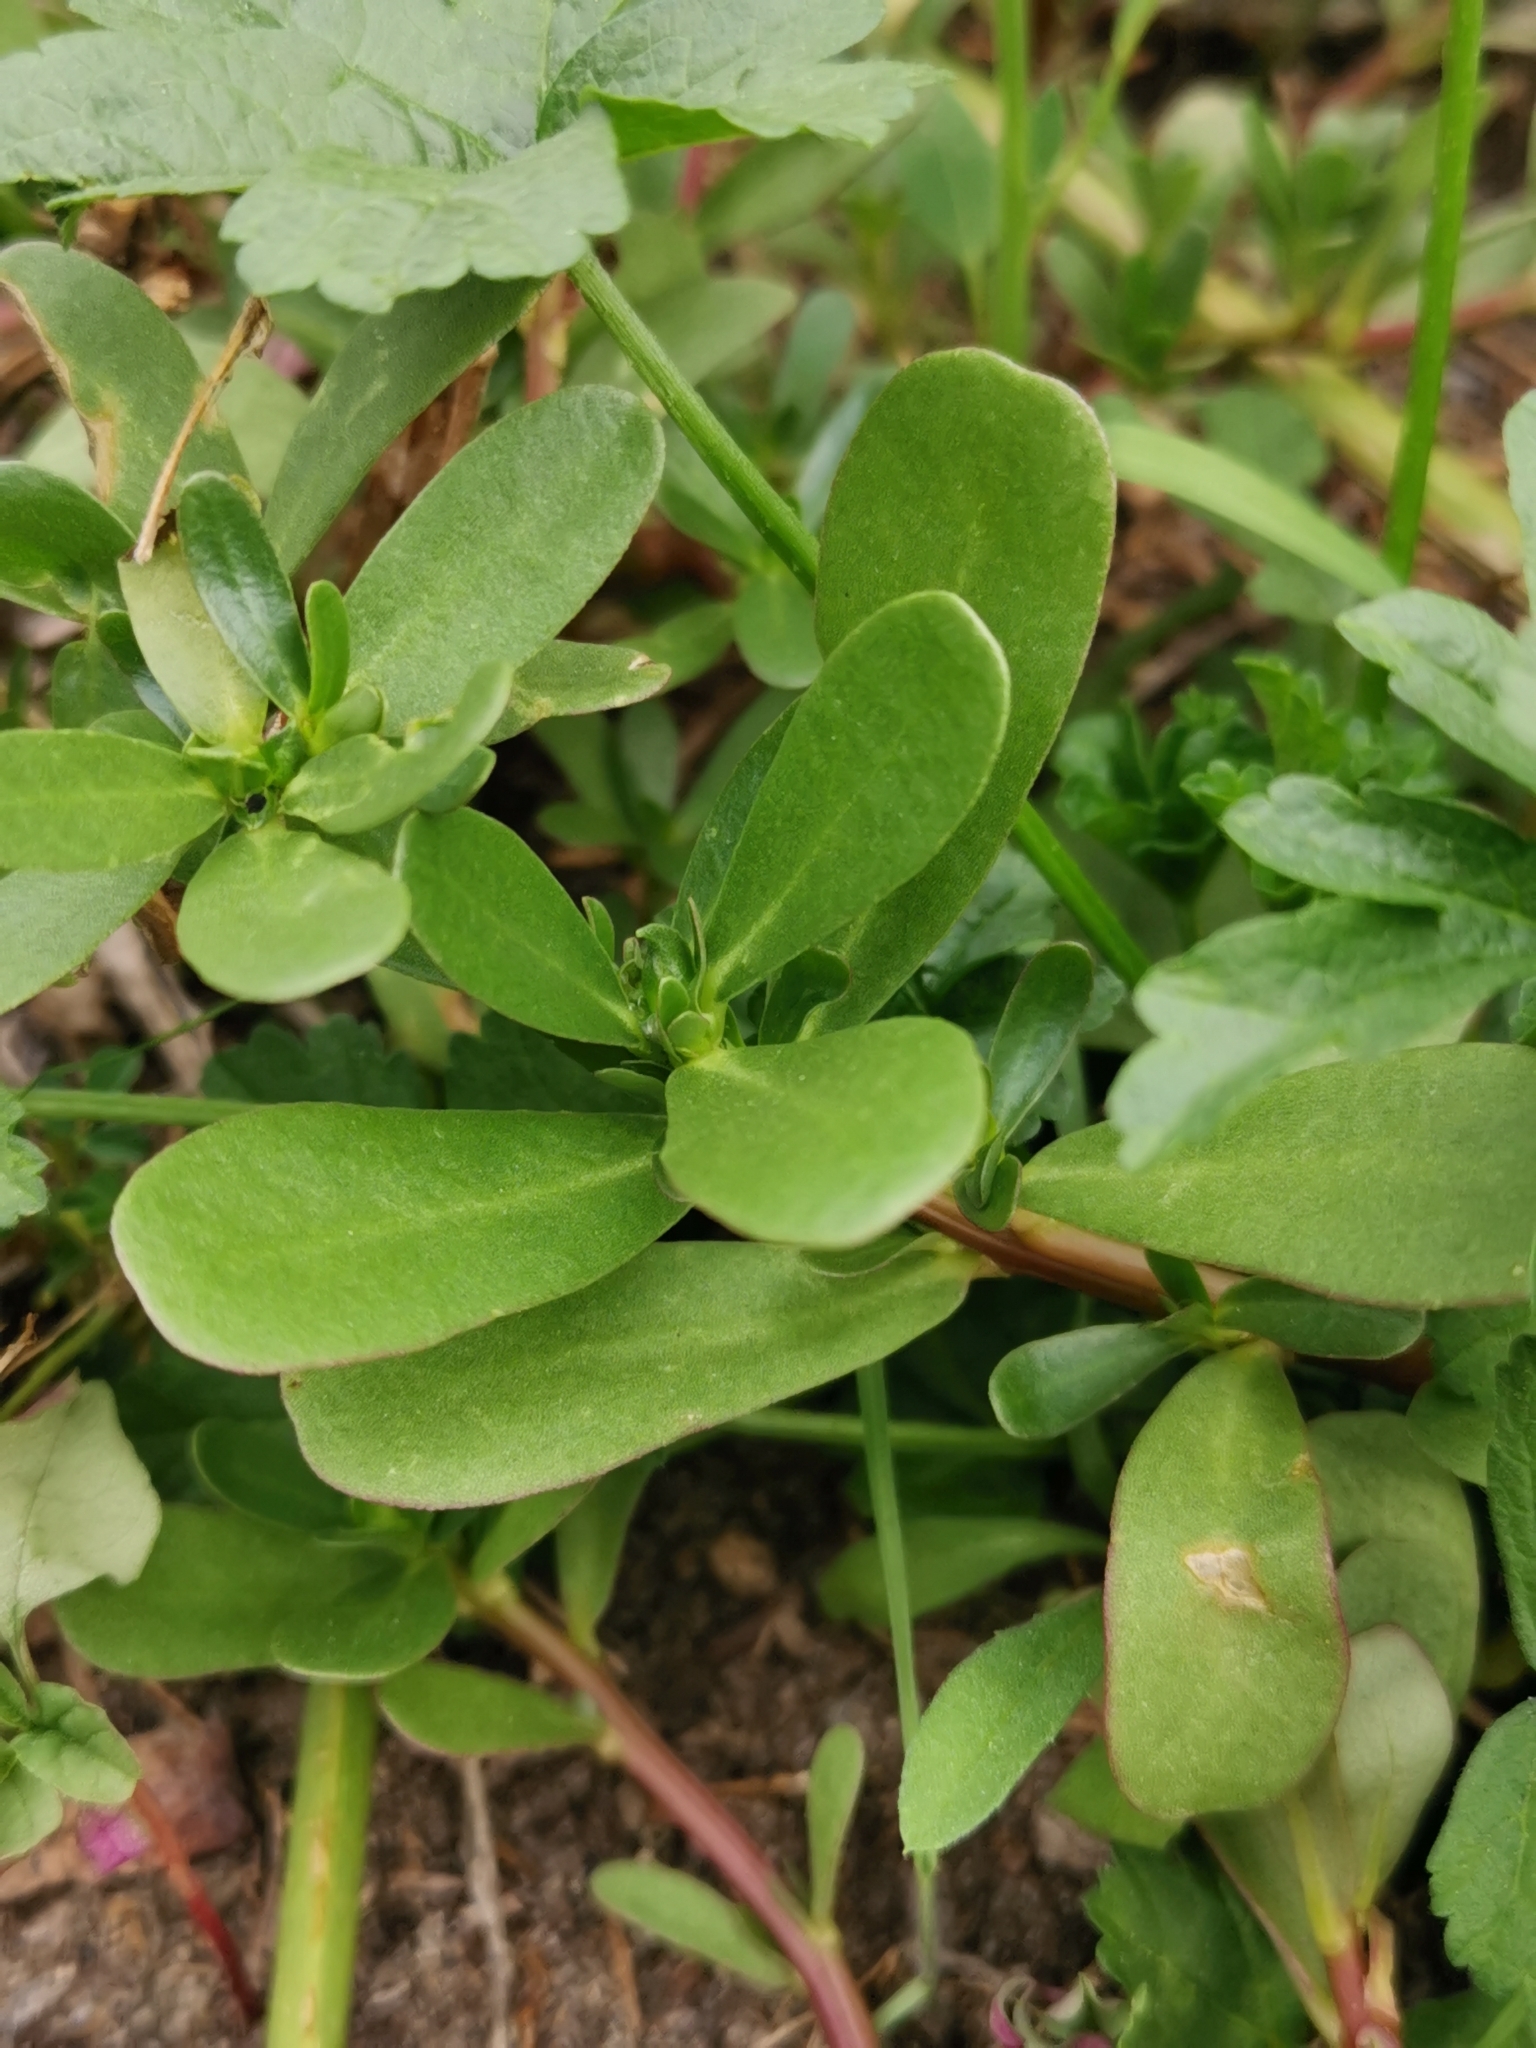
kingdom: Plantae
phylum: Tracheophyta
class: Magnoliopsida
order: Caryophyllales
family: Portulacaceae
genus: Portulaca
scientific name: Portulaca oleracea
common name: Common purslane
